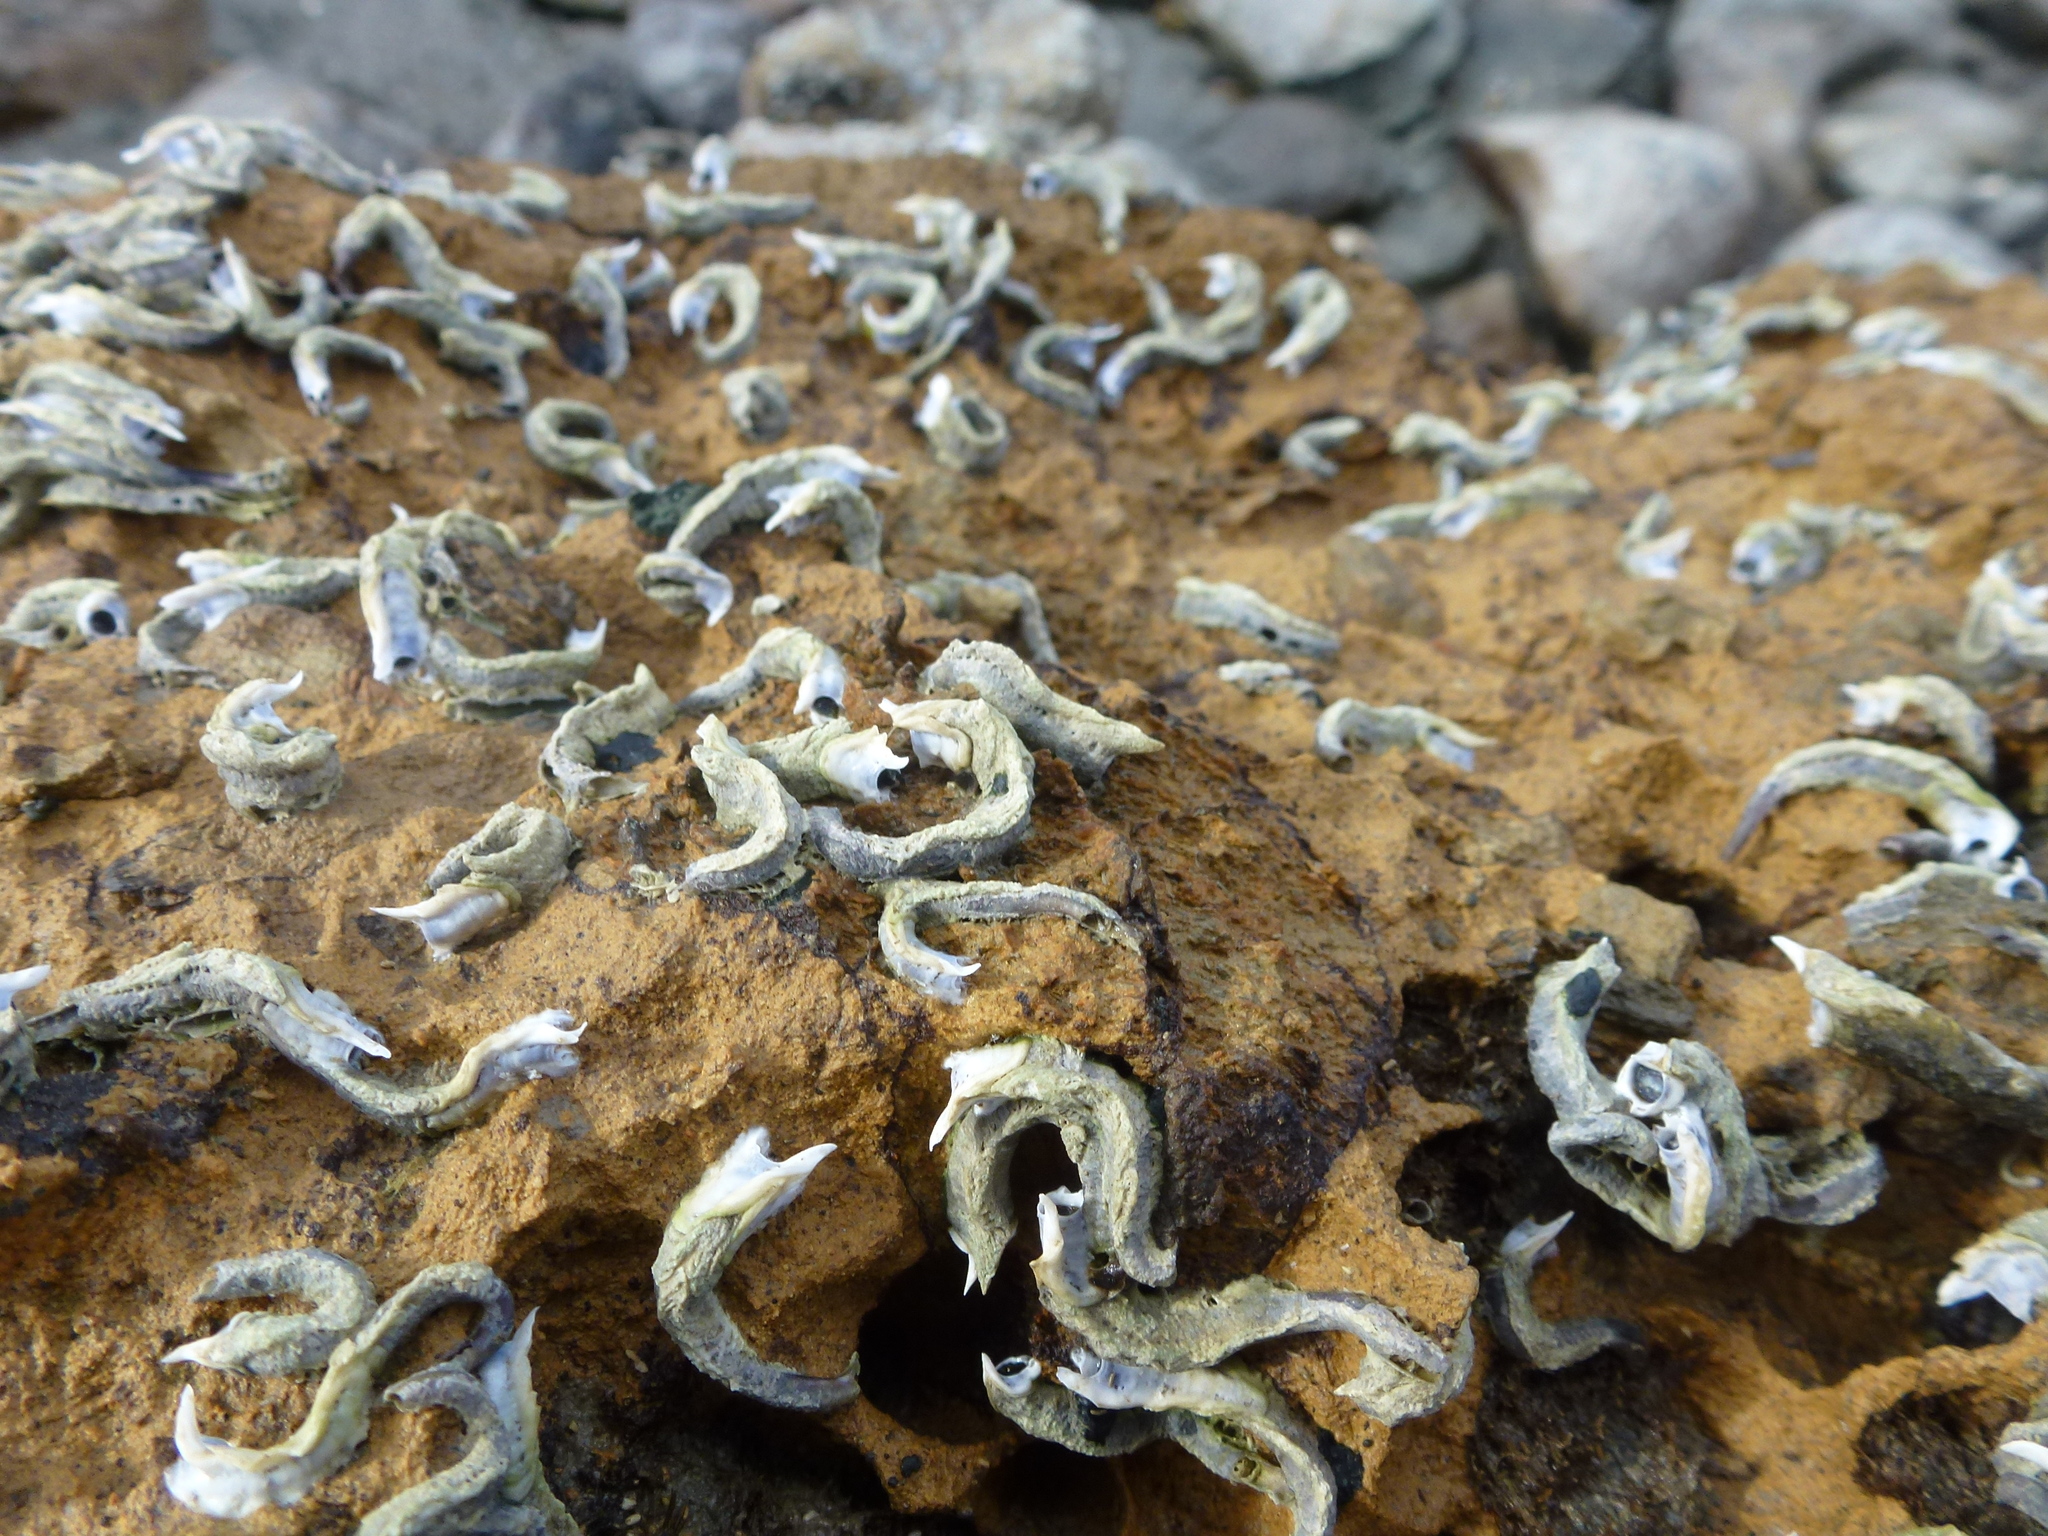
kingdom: Animalia
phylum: Annelida
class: Polychaeta
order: Sabellida
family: Serpulidae
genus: Spirobranchus
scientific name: Spirobranchus cariniferus
